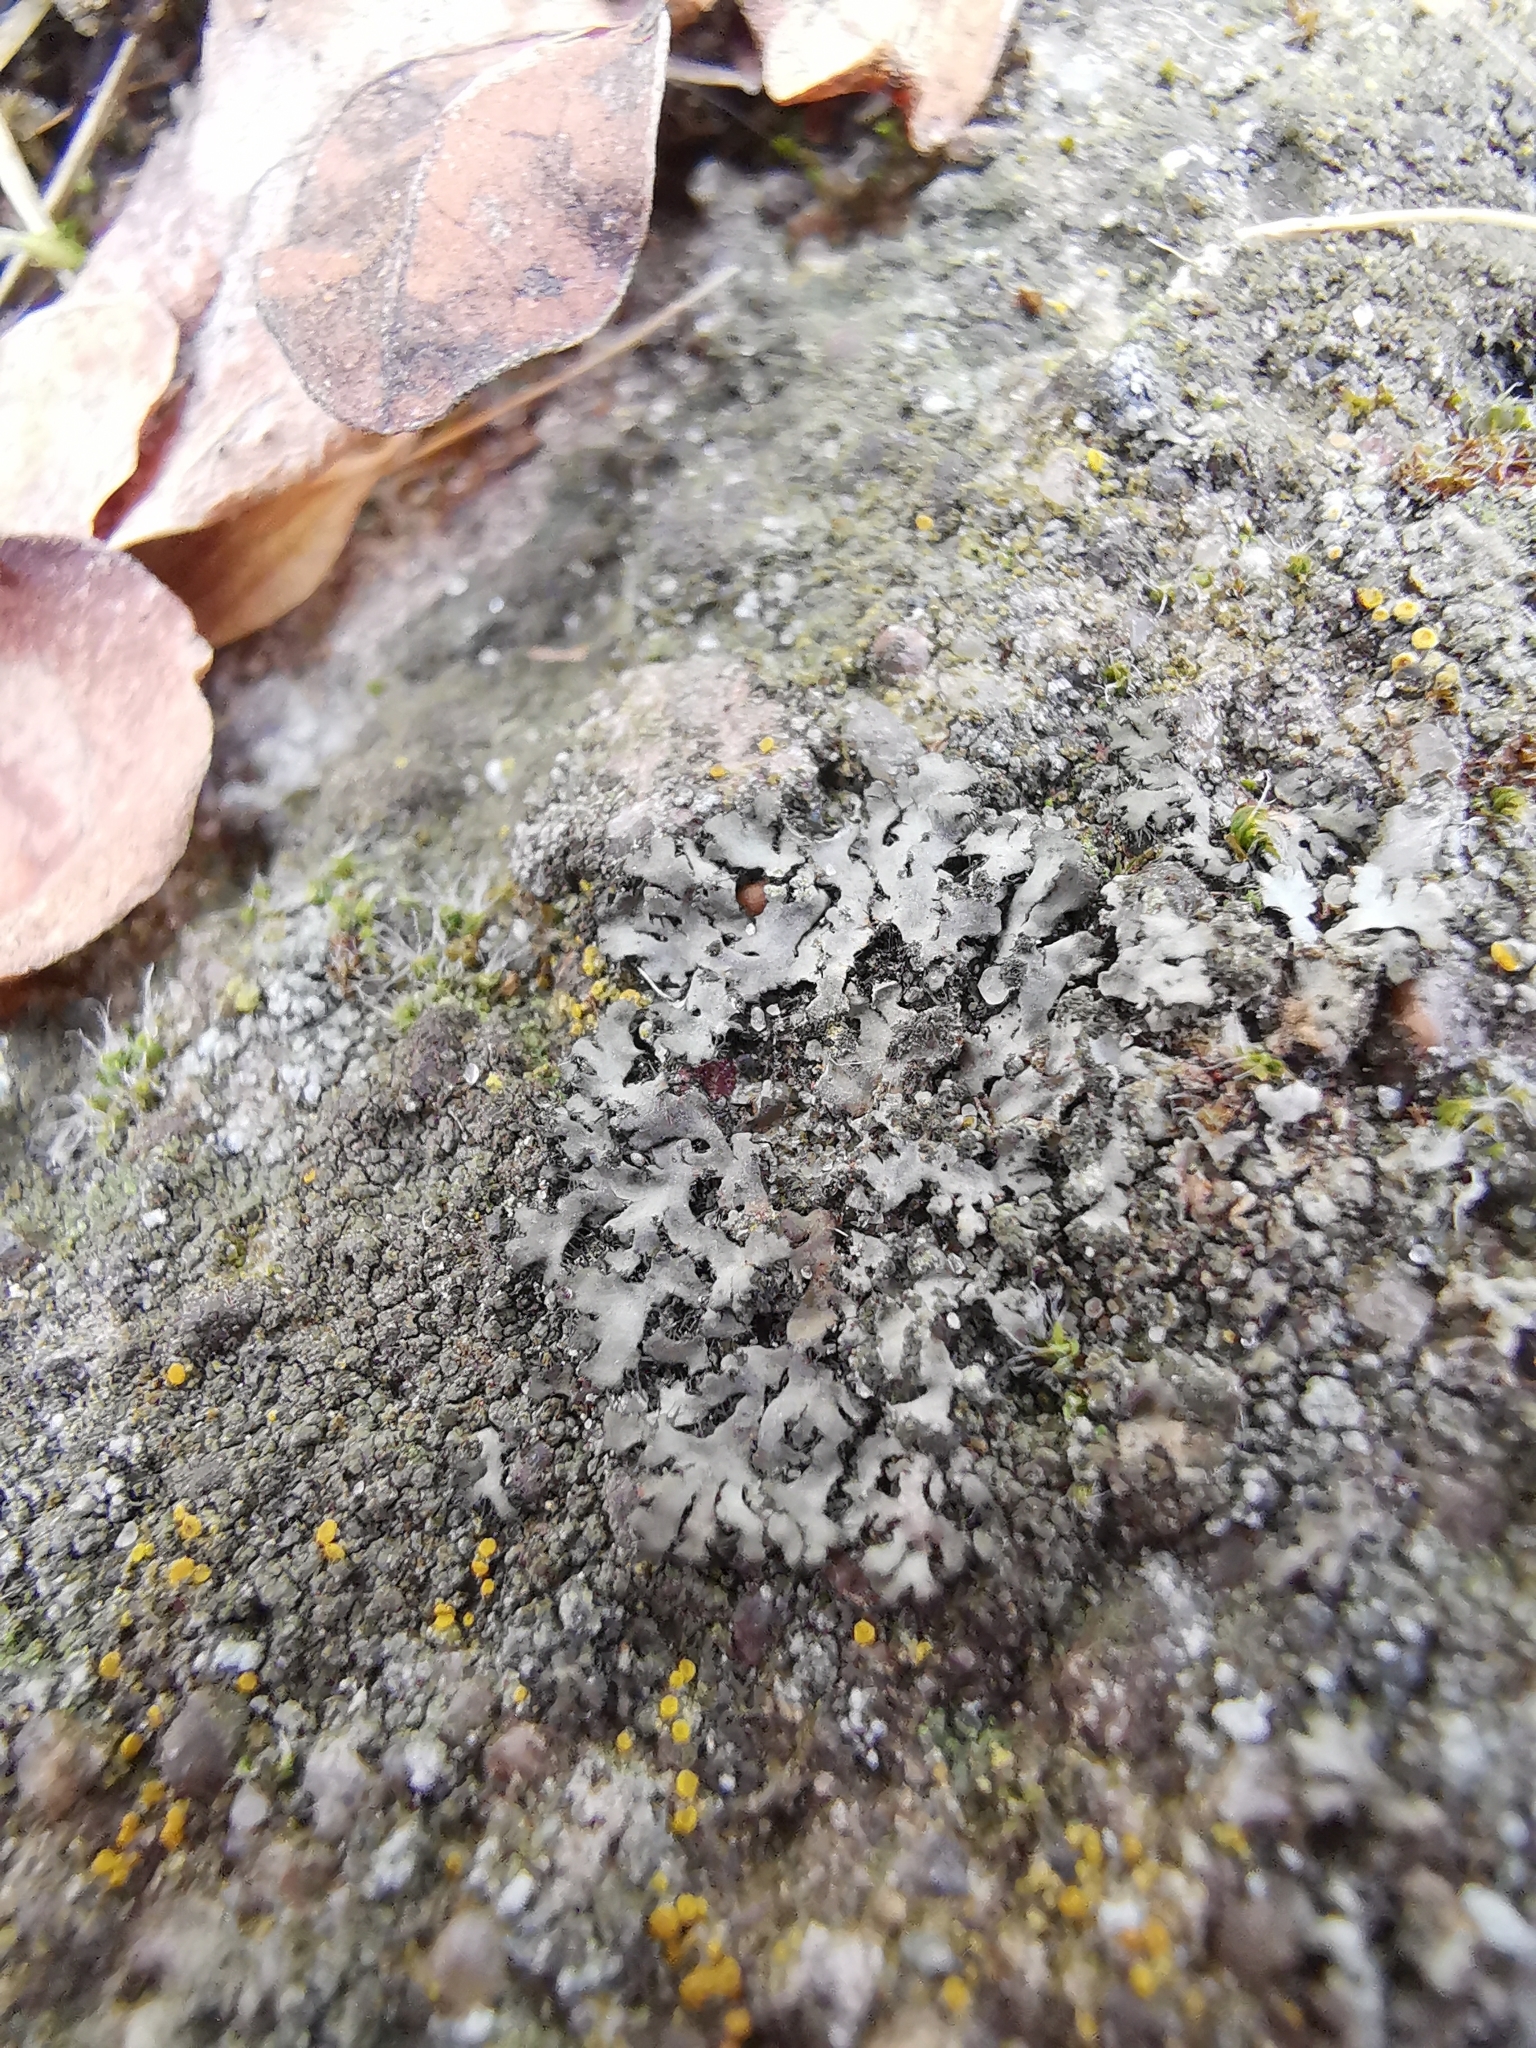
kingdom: Fungi
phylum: Ascomycota
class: Lecanoromycetes
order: Caliciales
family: Physciaceae
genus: Phaeophyscia
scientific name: Phaeophyscia orbicularis
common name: Mealy shadow lichen
